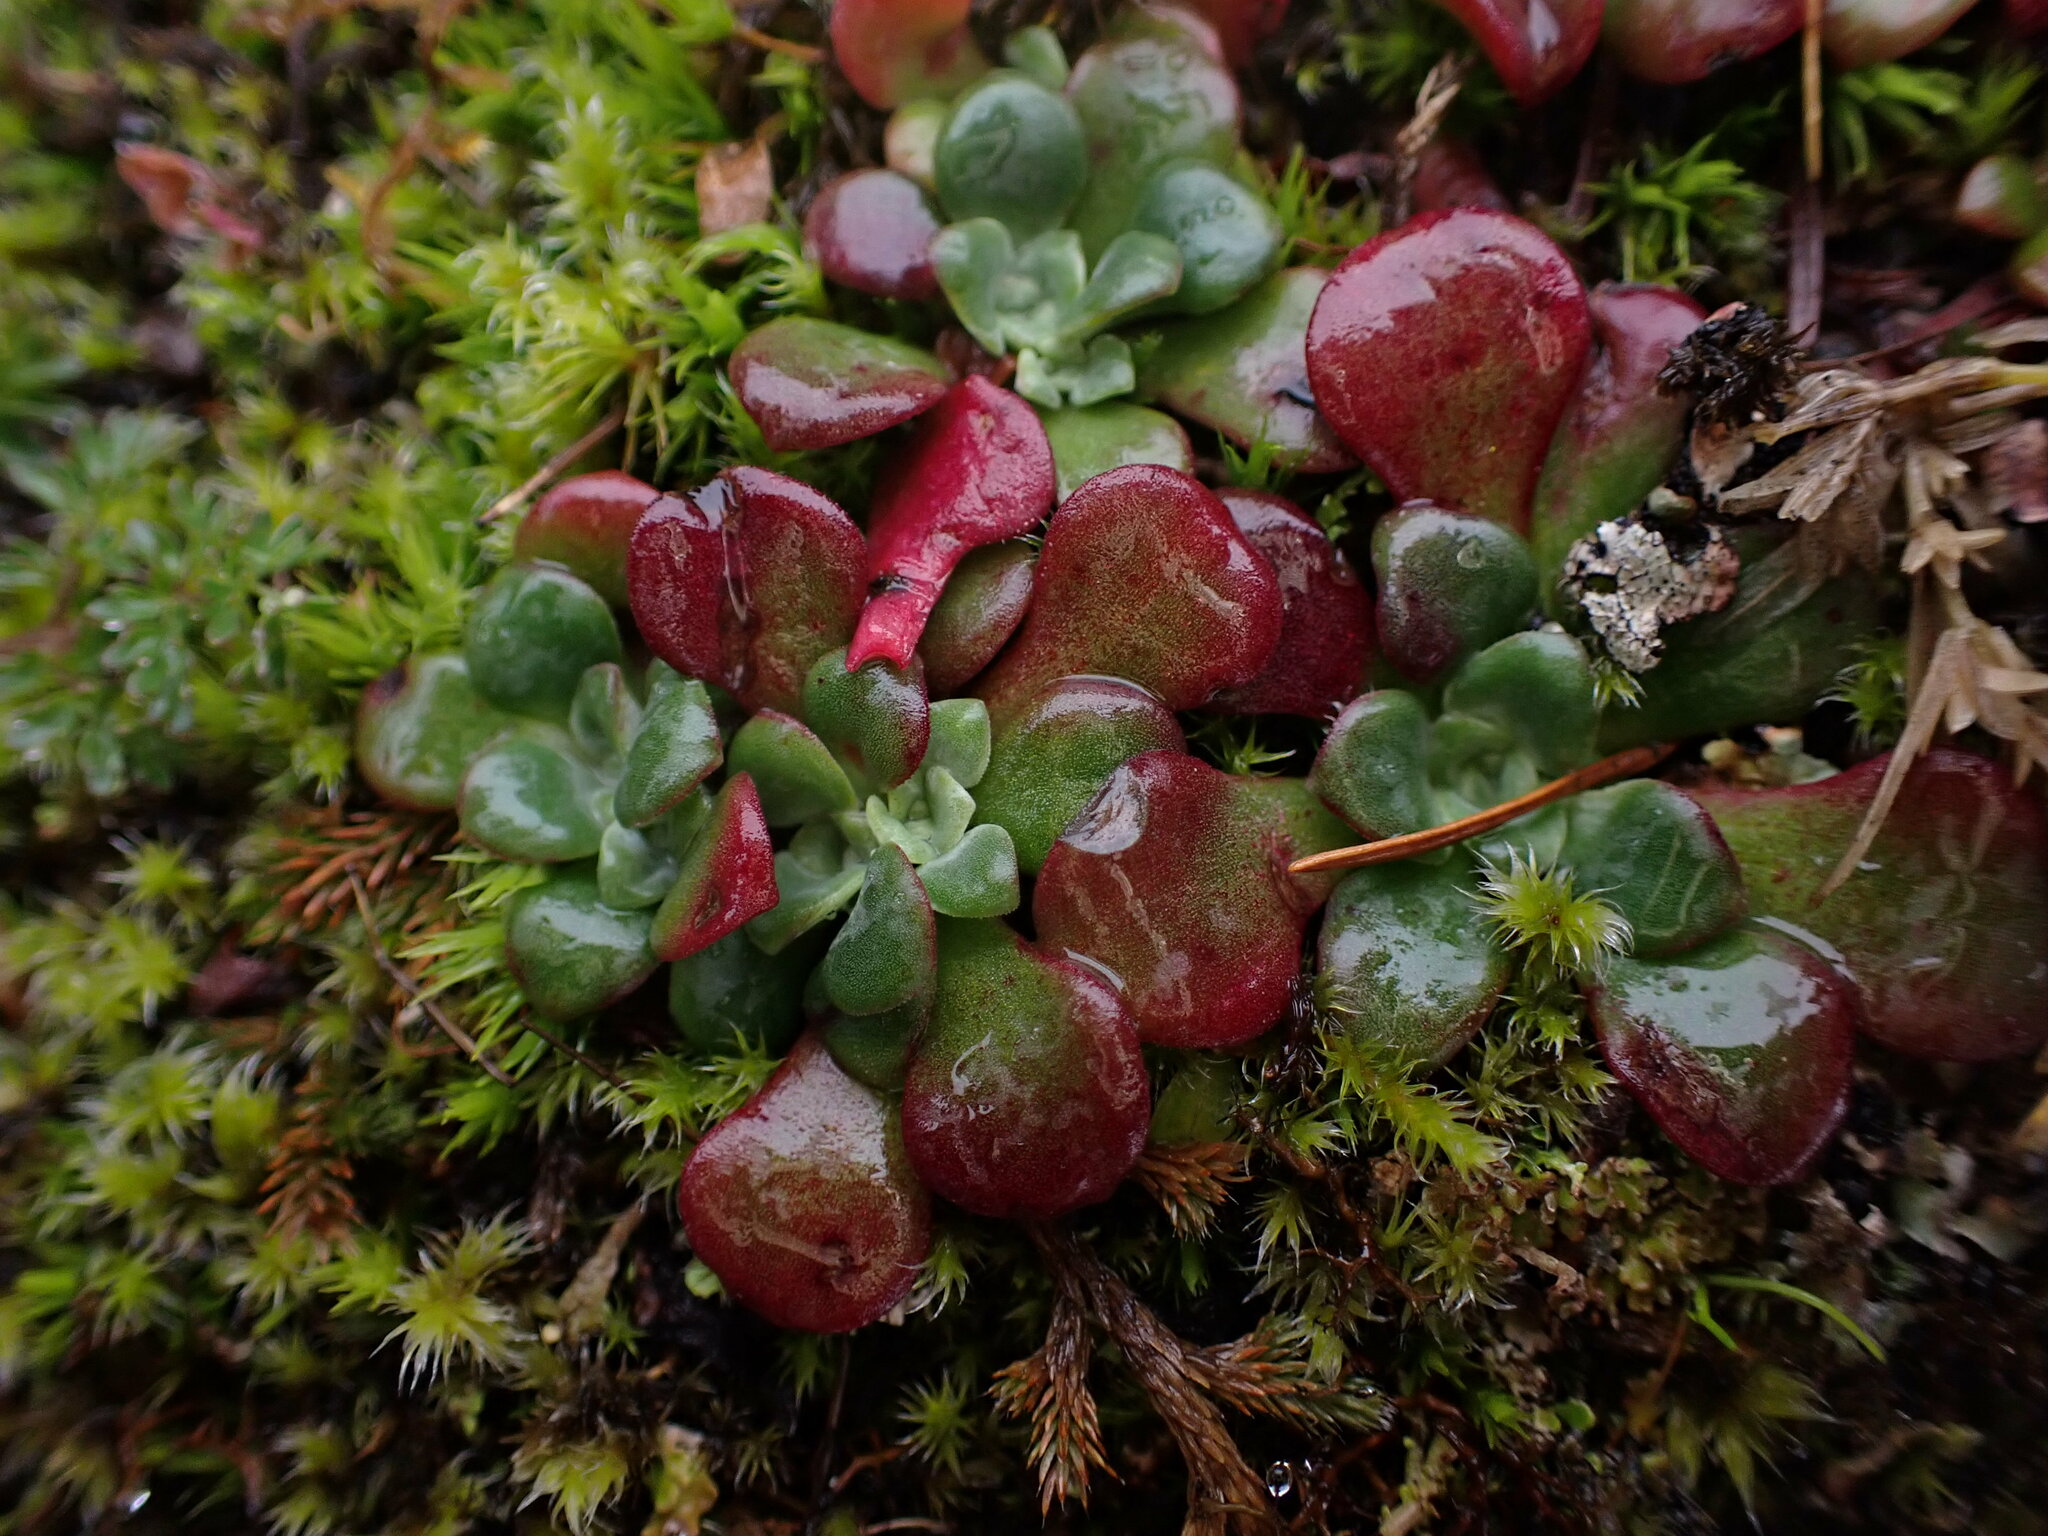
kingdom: Plantae
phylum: Tracheophyta
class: Magnoliopsida
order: Saxifragales
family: Crassulaceae
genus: Sedum
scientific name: Sedum spathulifolium
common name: Colorado stonecrop
